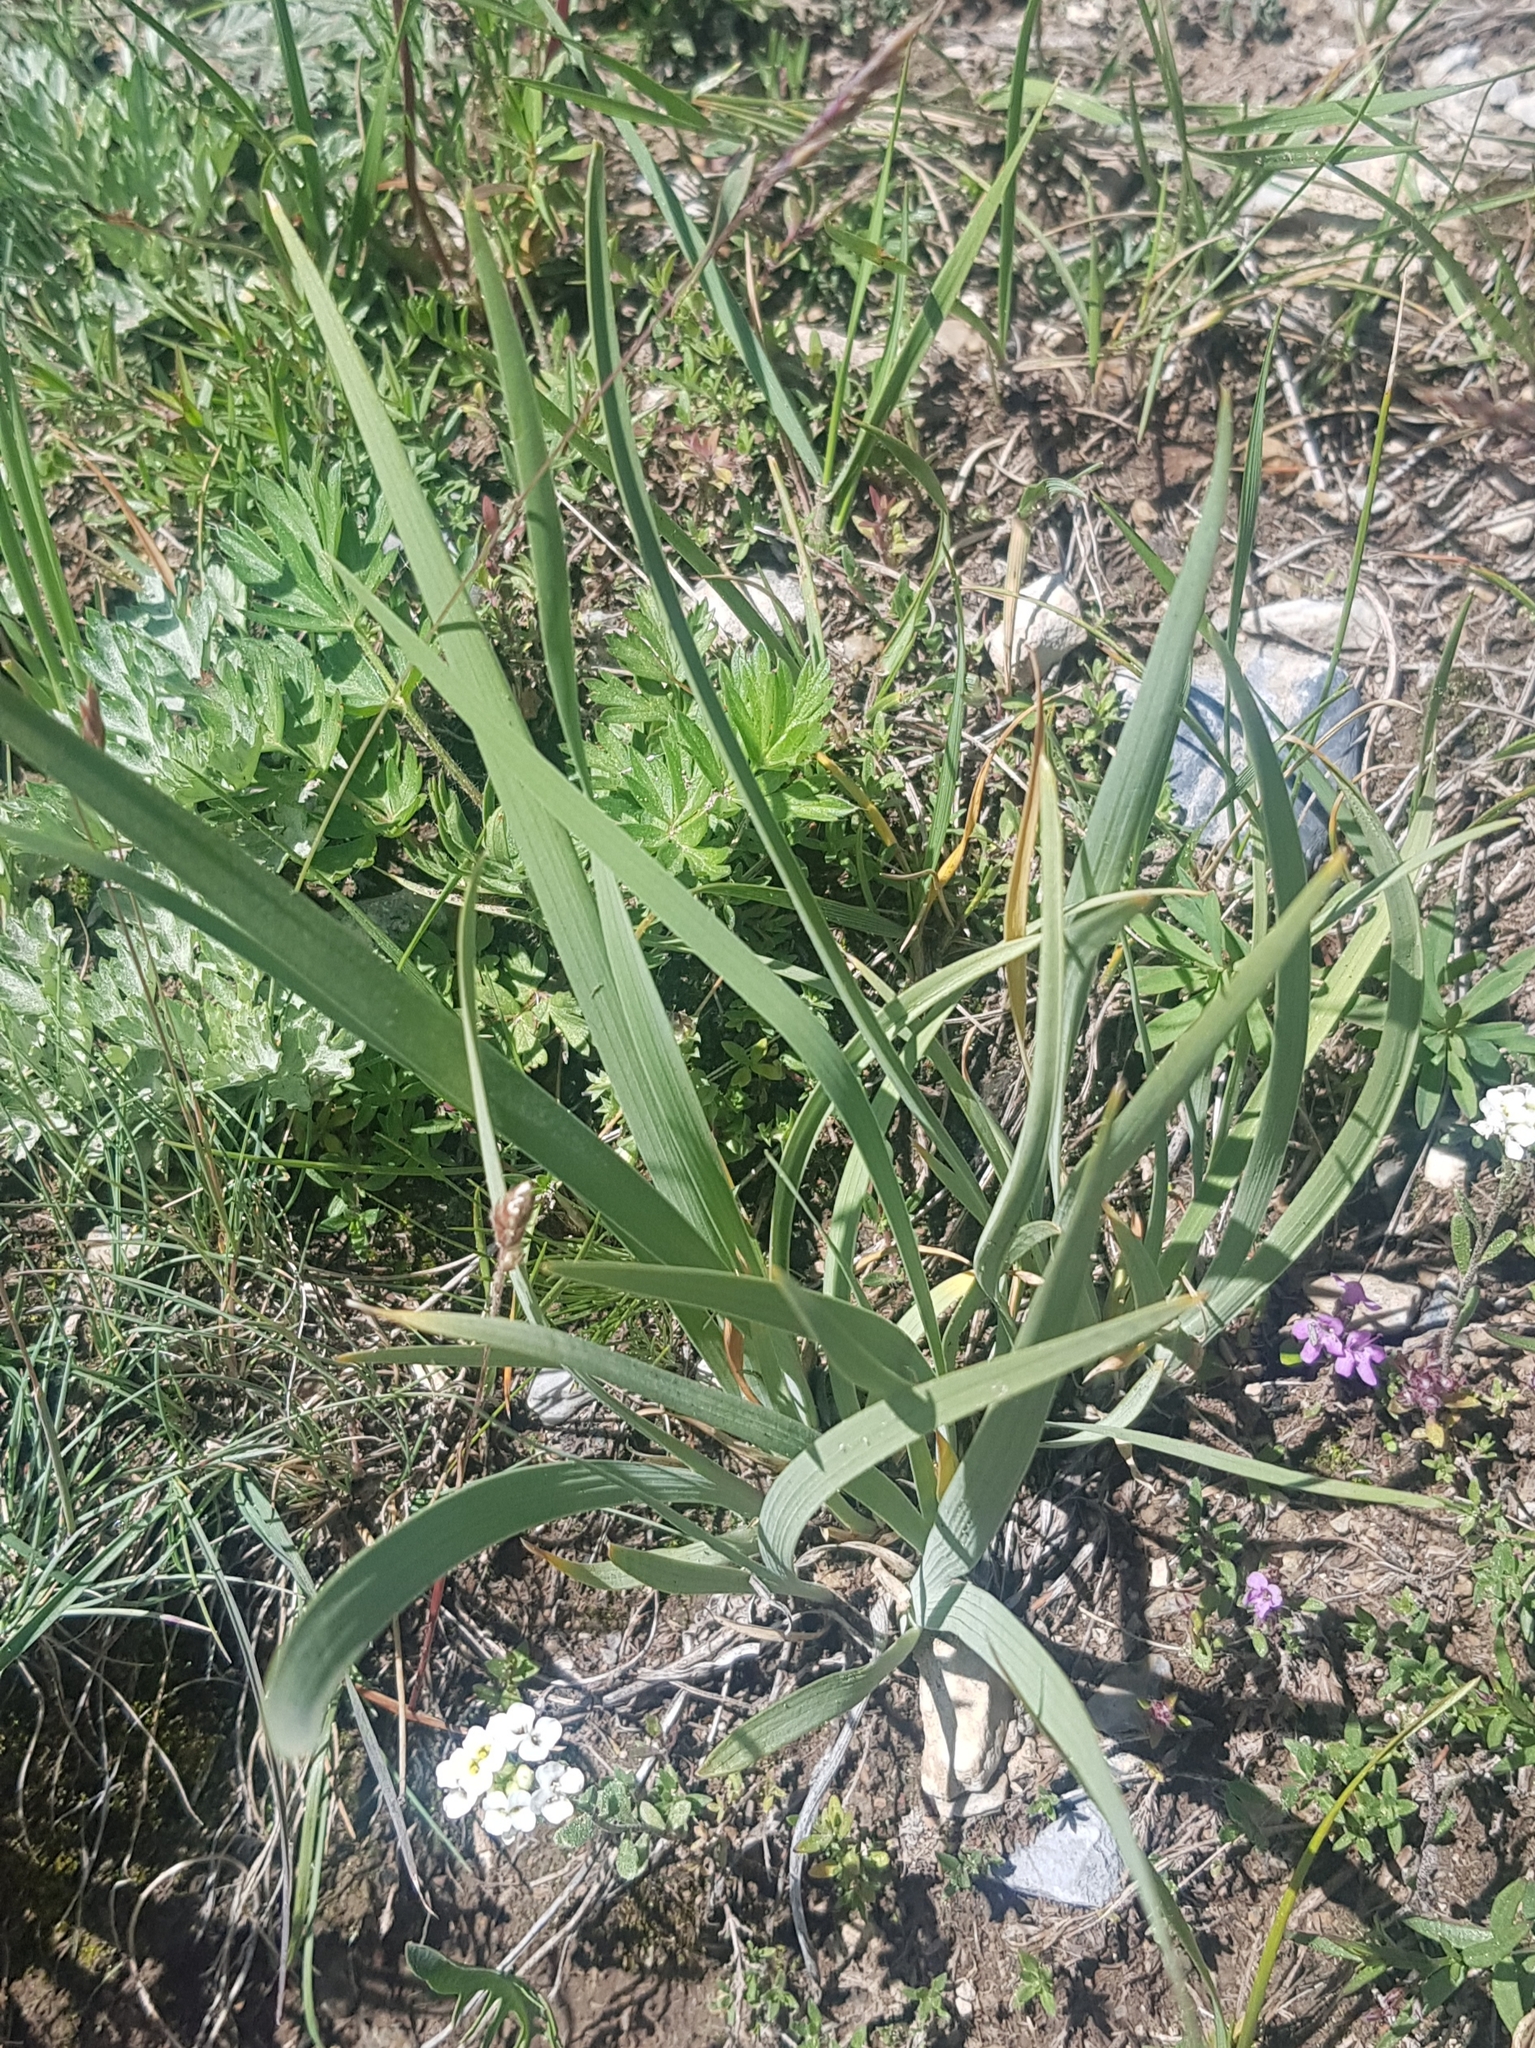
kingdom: Plantae
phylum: Tracheophyta
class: Liliopsida
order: Asparagales
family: Iridaceae
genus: Iris
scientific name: Iris lactea
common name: White-flower chinese iris
